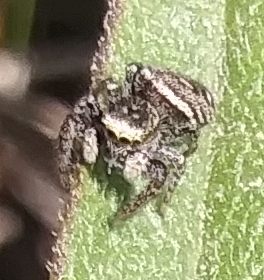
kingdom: Animalia
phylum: Arthropoda
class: Arachnida
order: Araneae
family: Salticidae
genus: Dendryphantes
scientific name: Dendryphantes nigromaculatus
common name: Black-marked jumping spider
